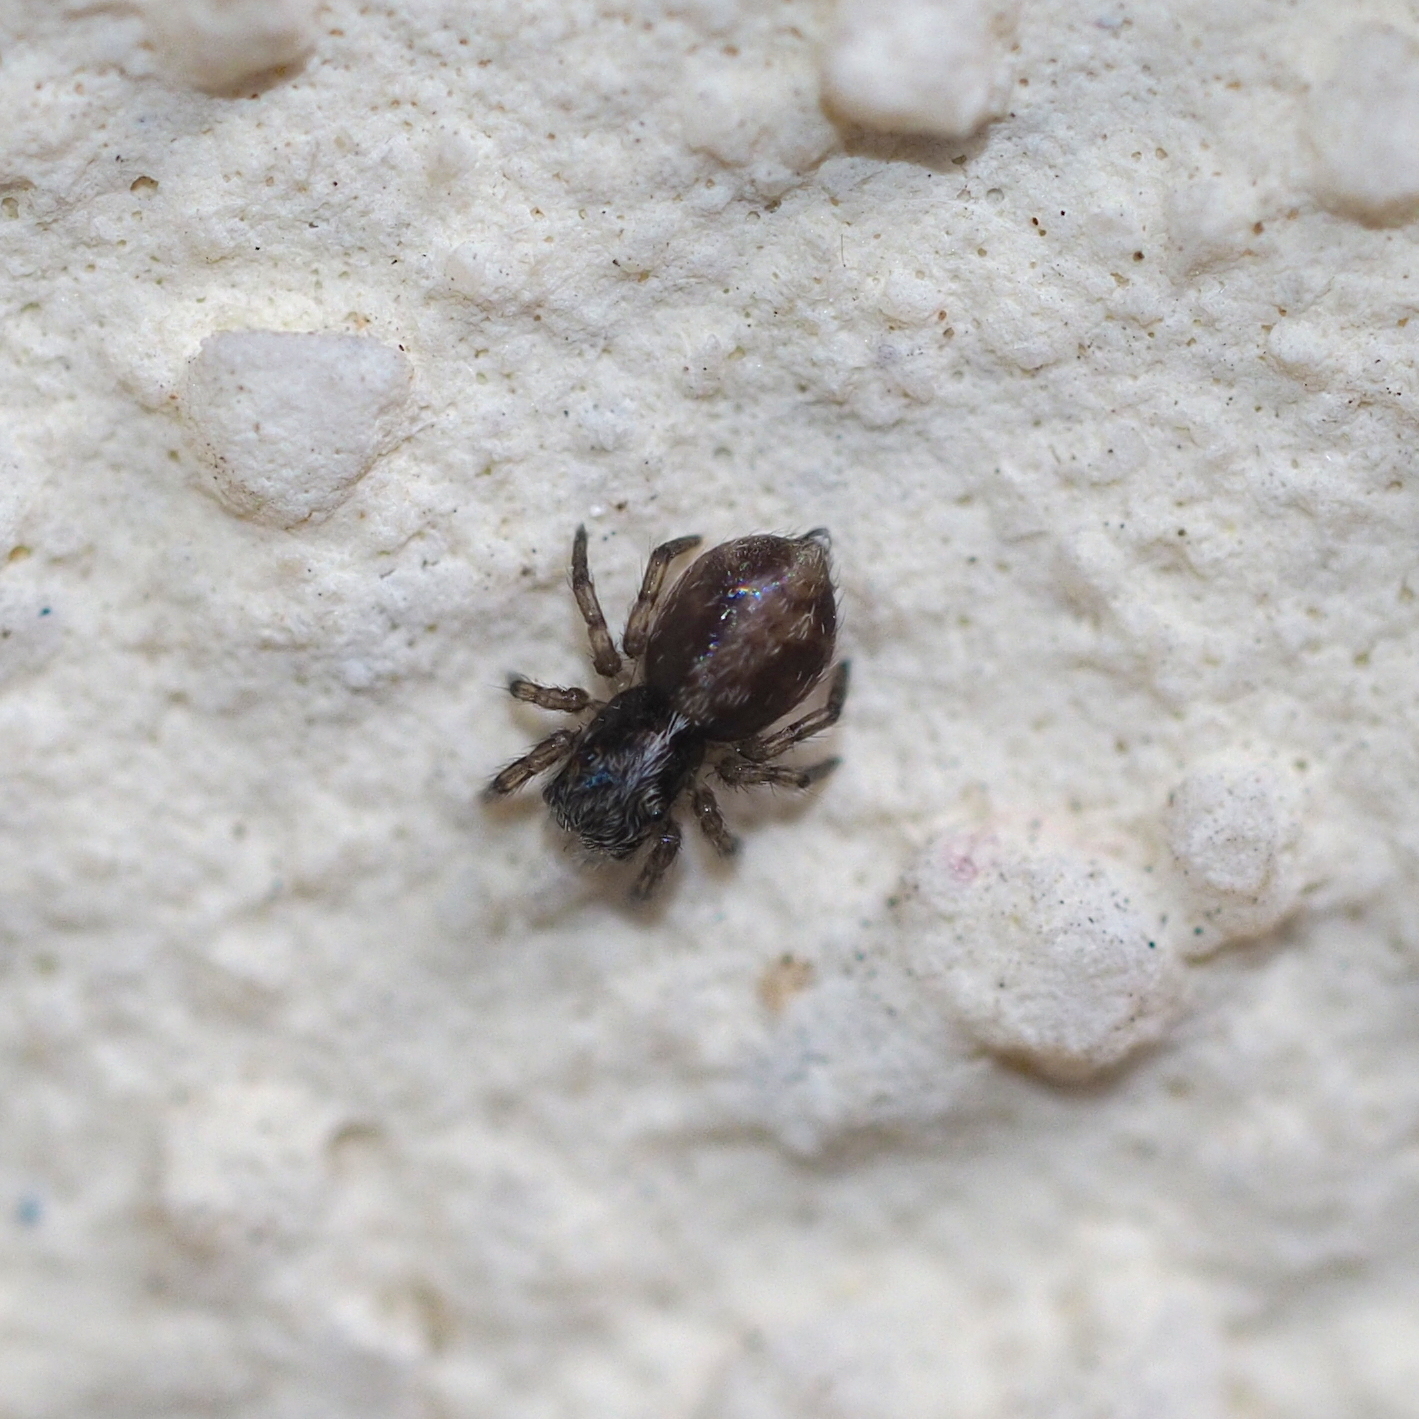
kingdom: Animalia
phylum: Arthropoda
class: Arachnida
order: Araneae
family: Salticidae
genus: Pseudeuophrys
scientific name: Pseudeuophrys lanigera
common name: Jumping spider
